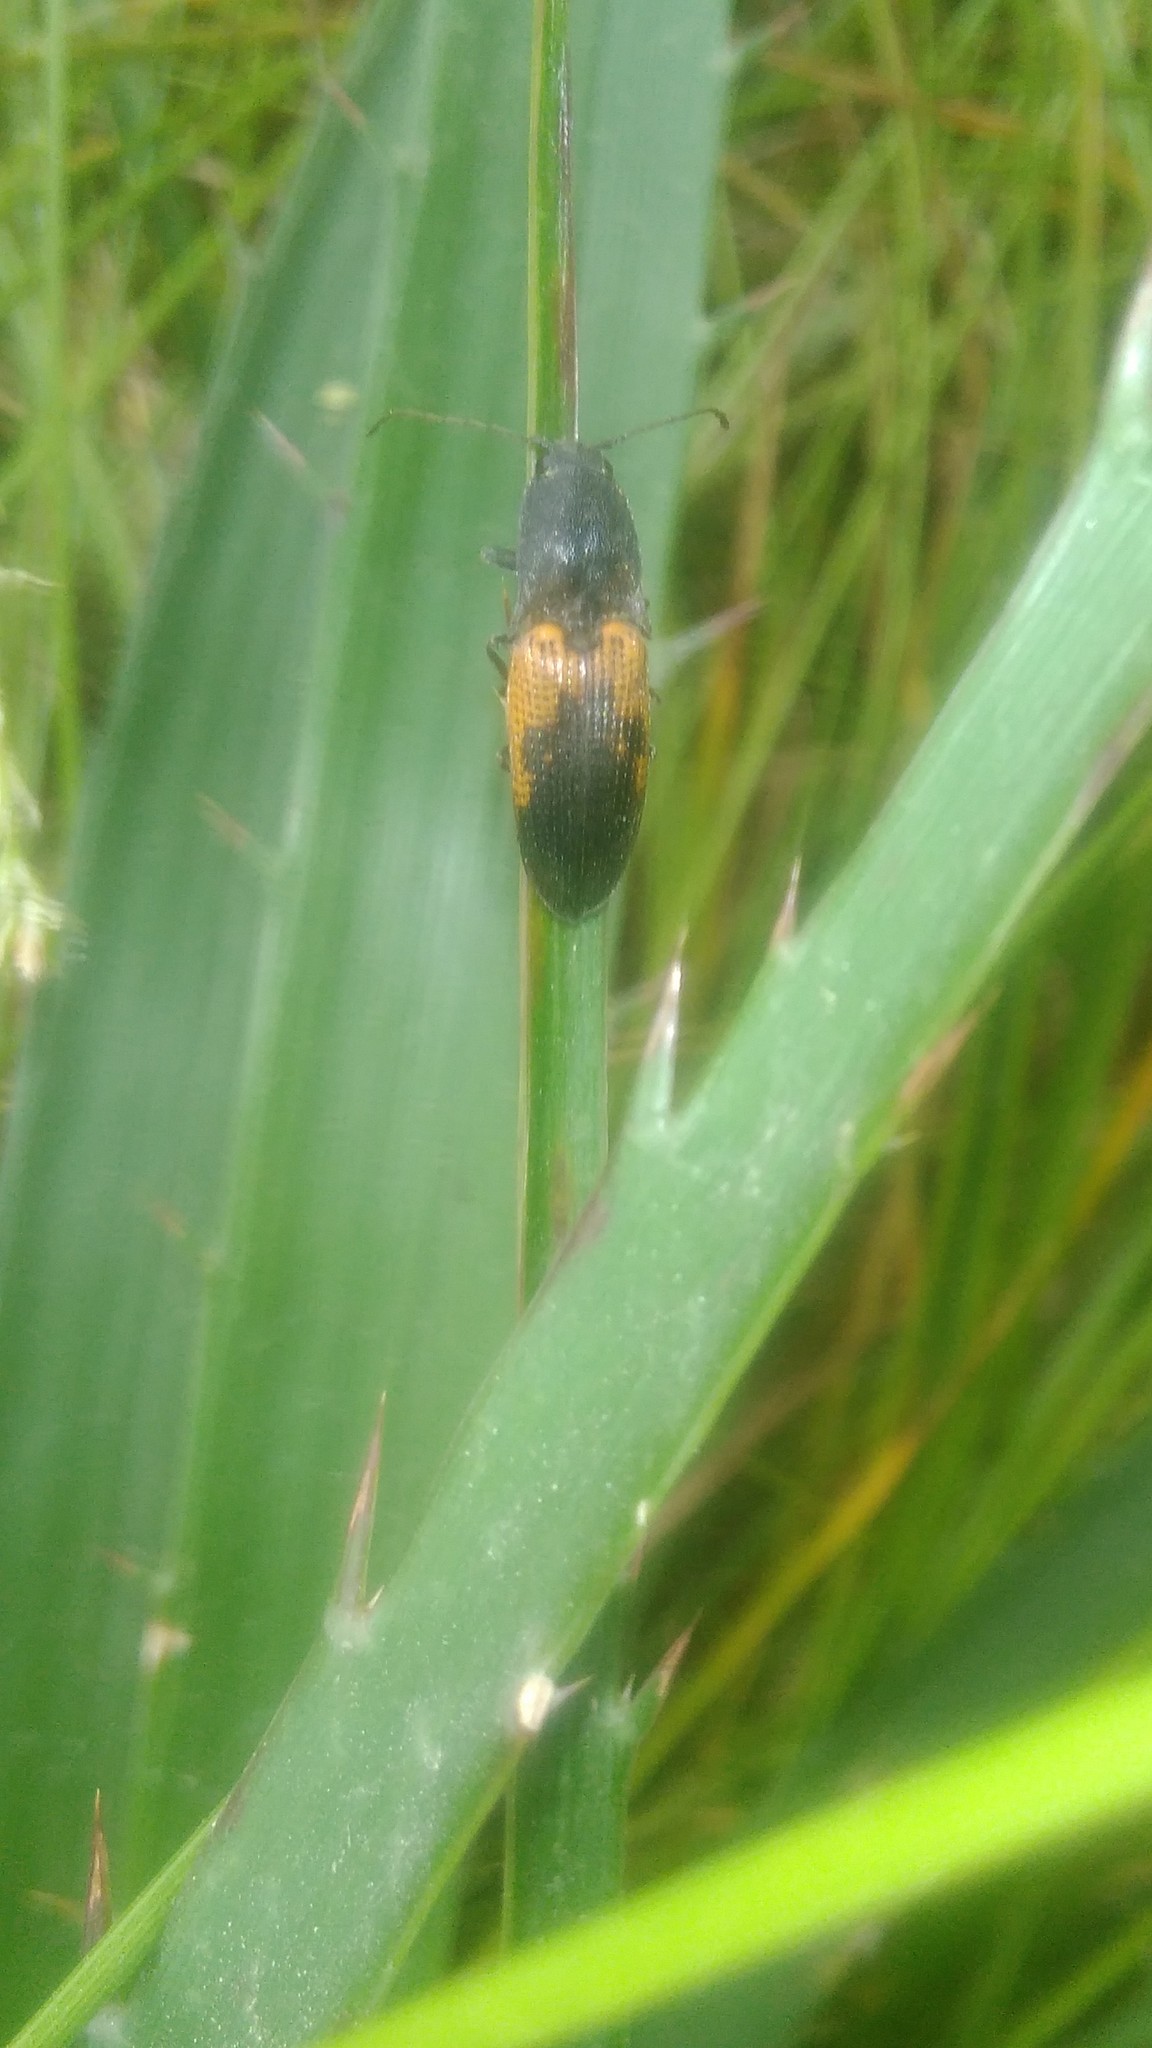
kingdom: Animalia
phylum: Arthropoda
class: Insecta
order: Coleoptera
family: Elateridae
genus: Monocrepidius
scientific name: Monocrepidius
